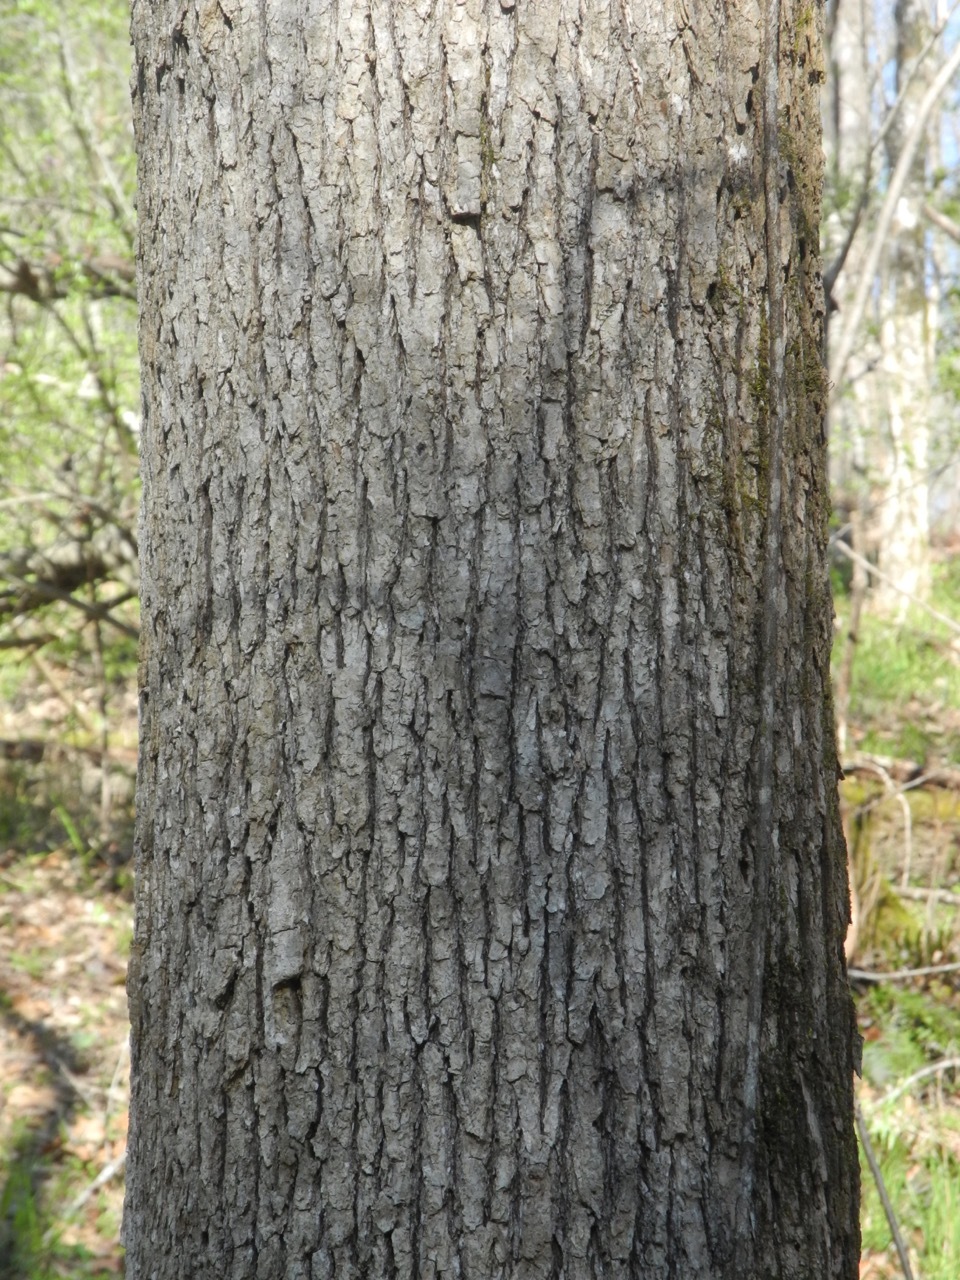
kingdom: Plantae
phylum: Tracheophyta
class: Magnoliopsida
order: Saxifragales
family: Altingiaceae
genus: Liquidambar
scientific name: Liquidambar styraciflua
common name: Sweet gum
